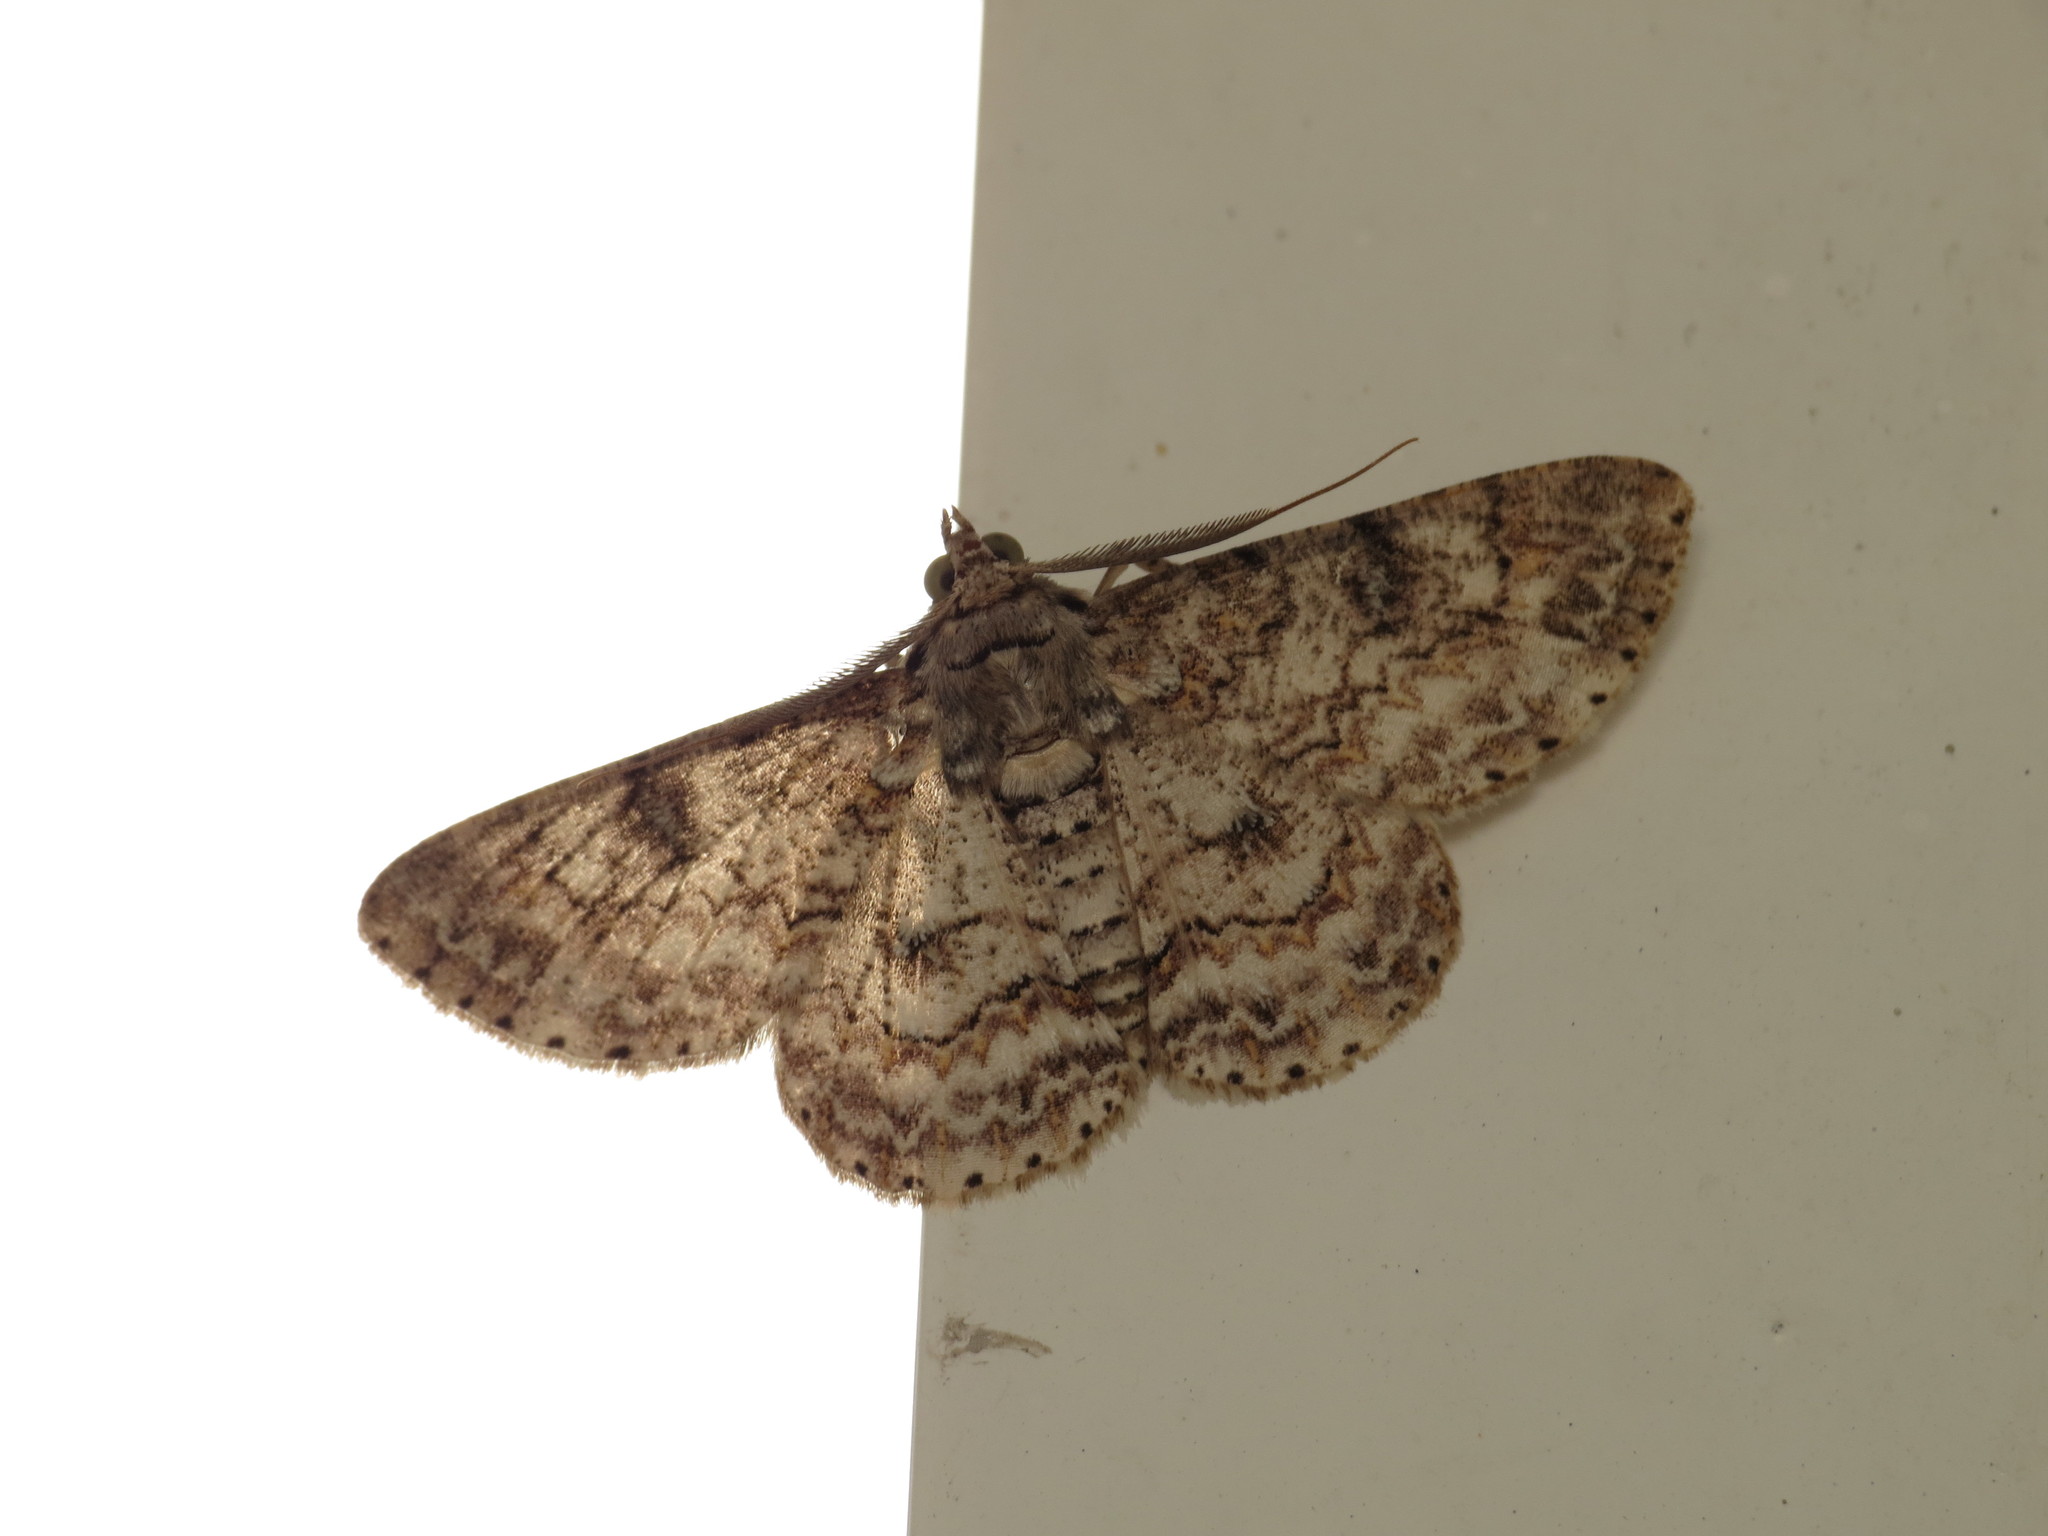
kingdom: Animalia
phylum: Arthropoda
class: Insecta
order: Lepidoptera
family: Geometridae
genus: Cleora
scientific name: Cleora injectaria
